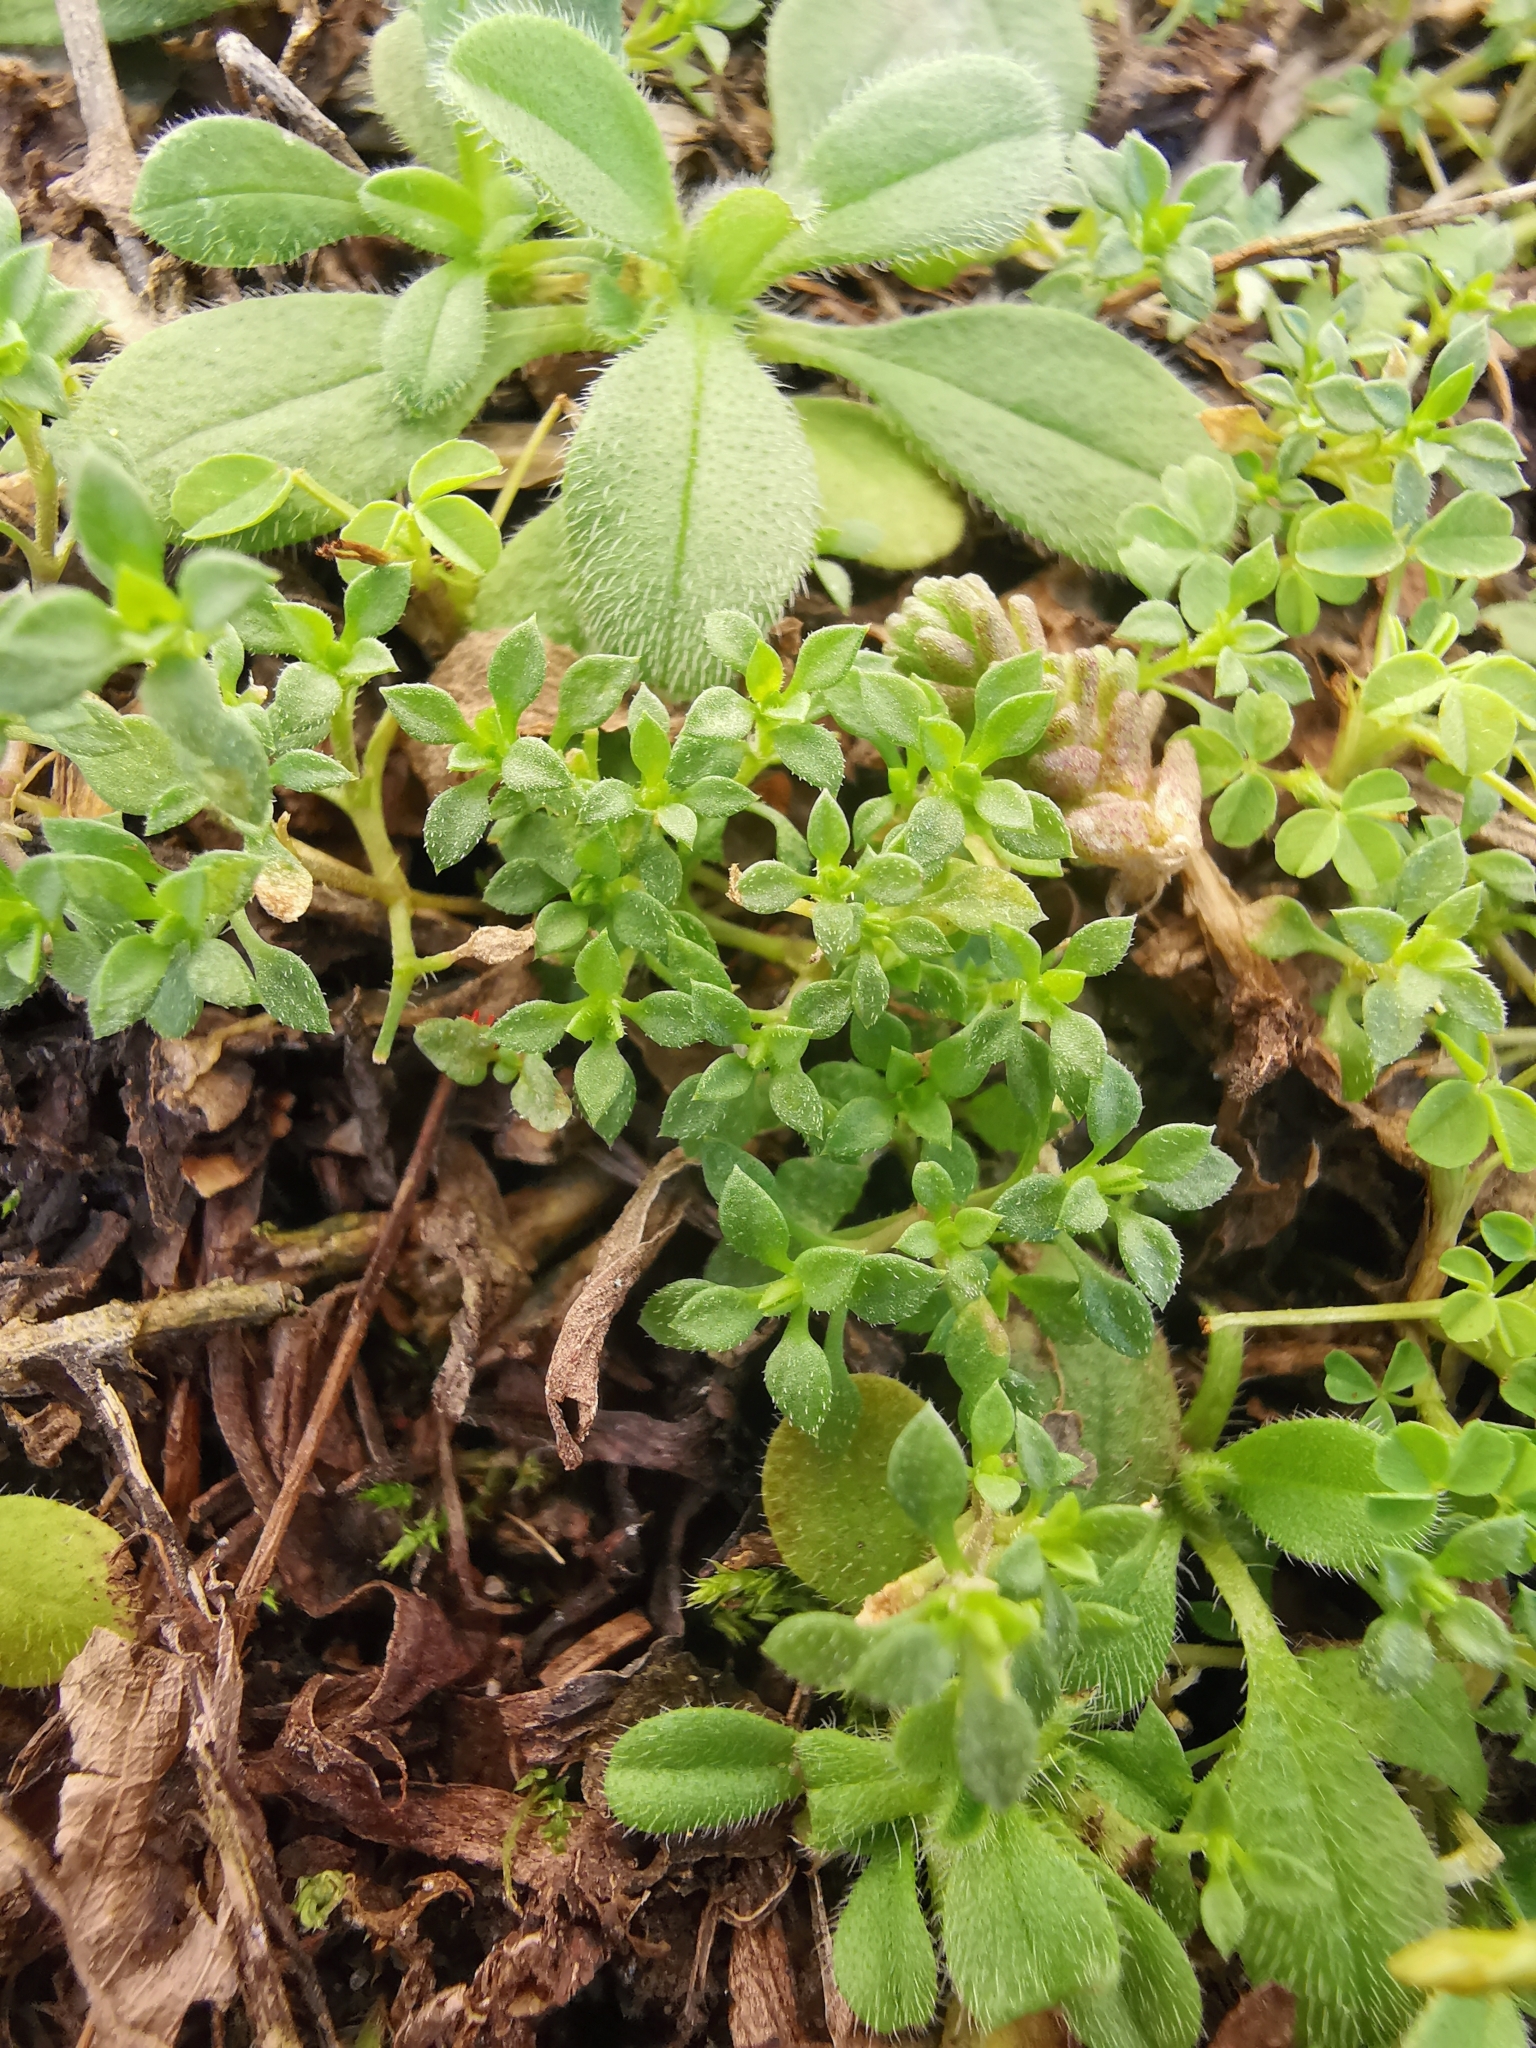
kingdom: Plantae
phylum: Tracheophyta
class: Magnoliopsida
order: Caryophyllales
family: Caryophyllaceae
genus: Arenaria
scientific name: Arenaria serpyllifolia
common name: Thyme-leaved sandwort
